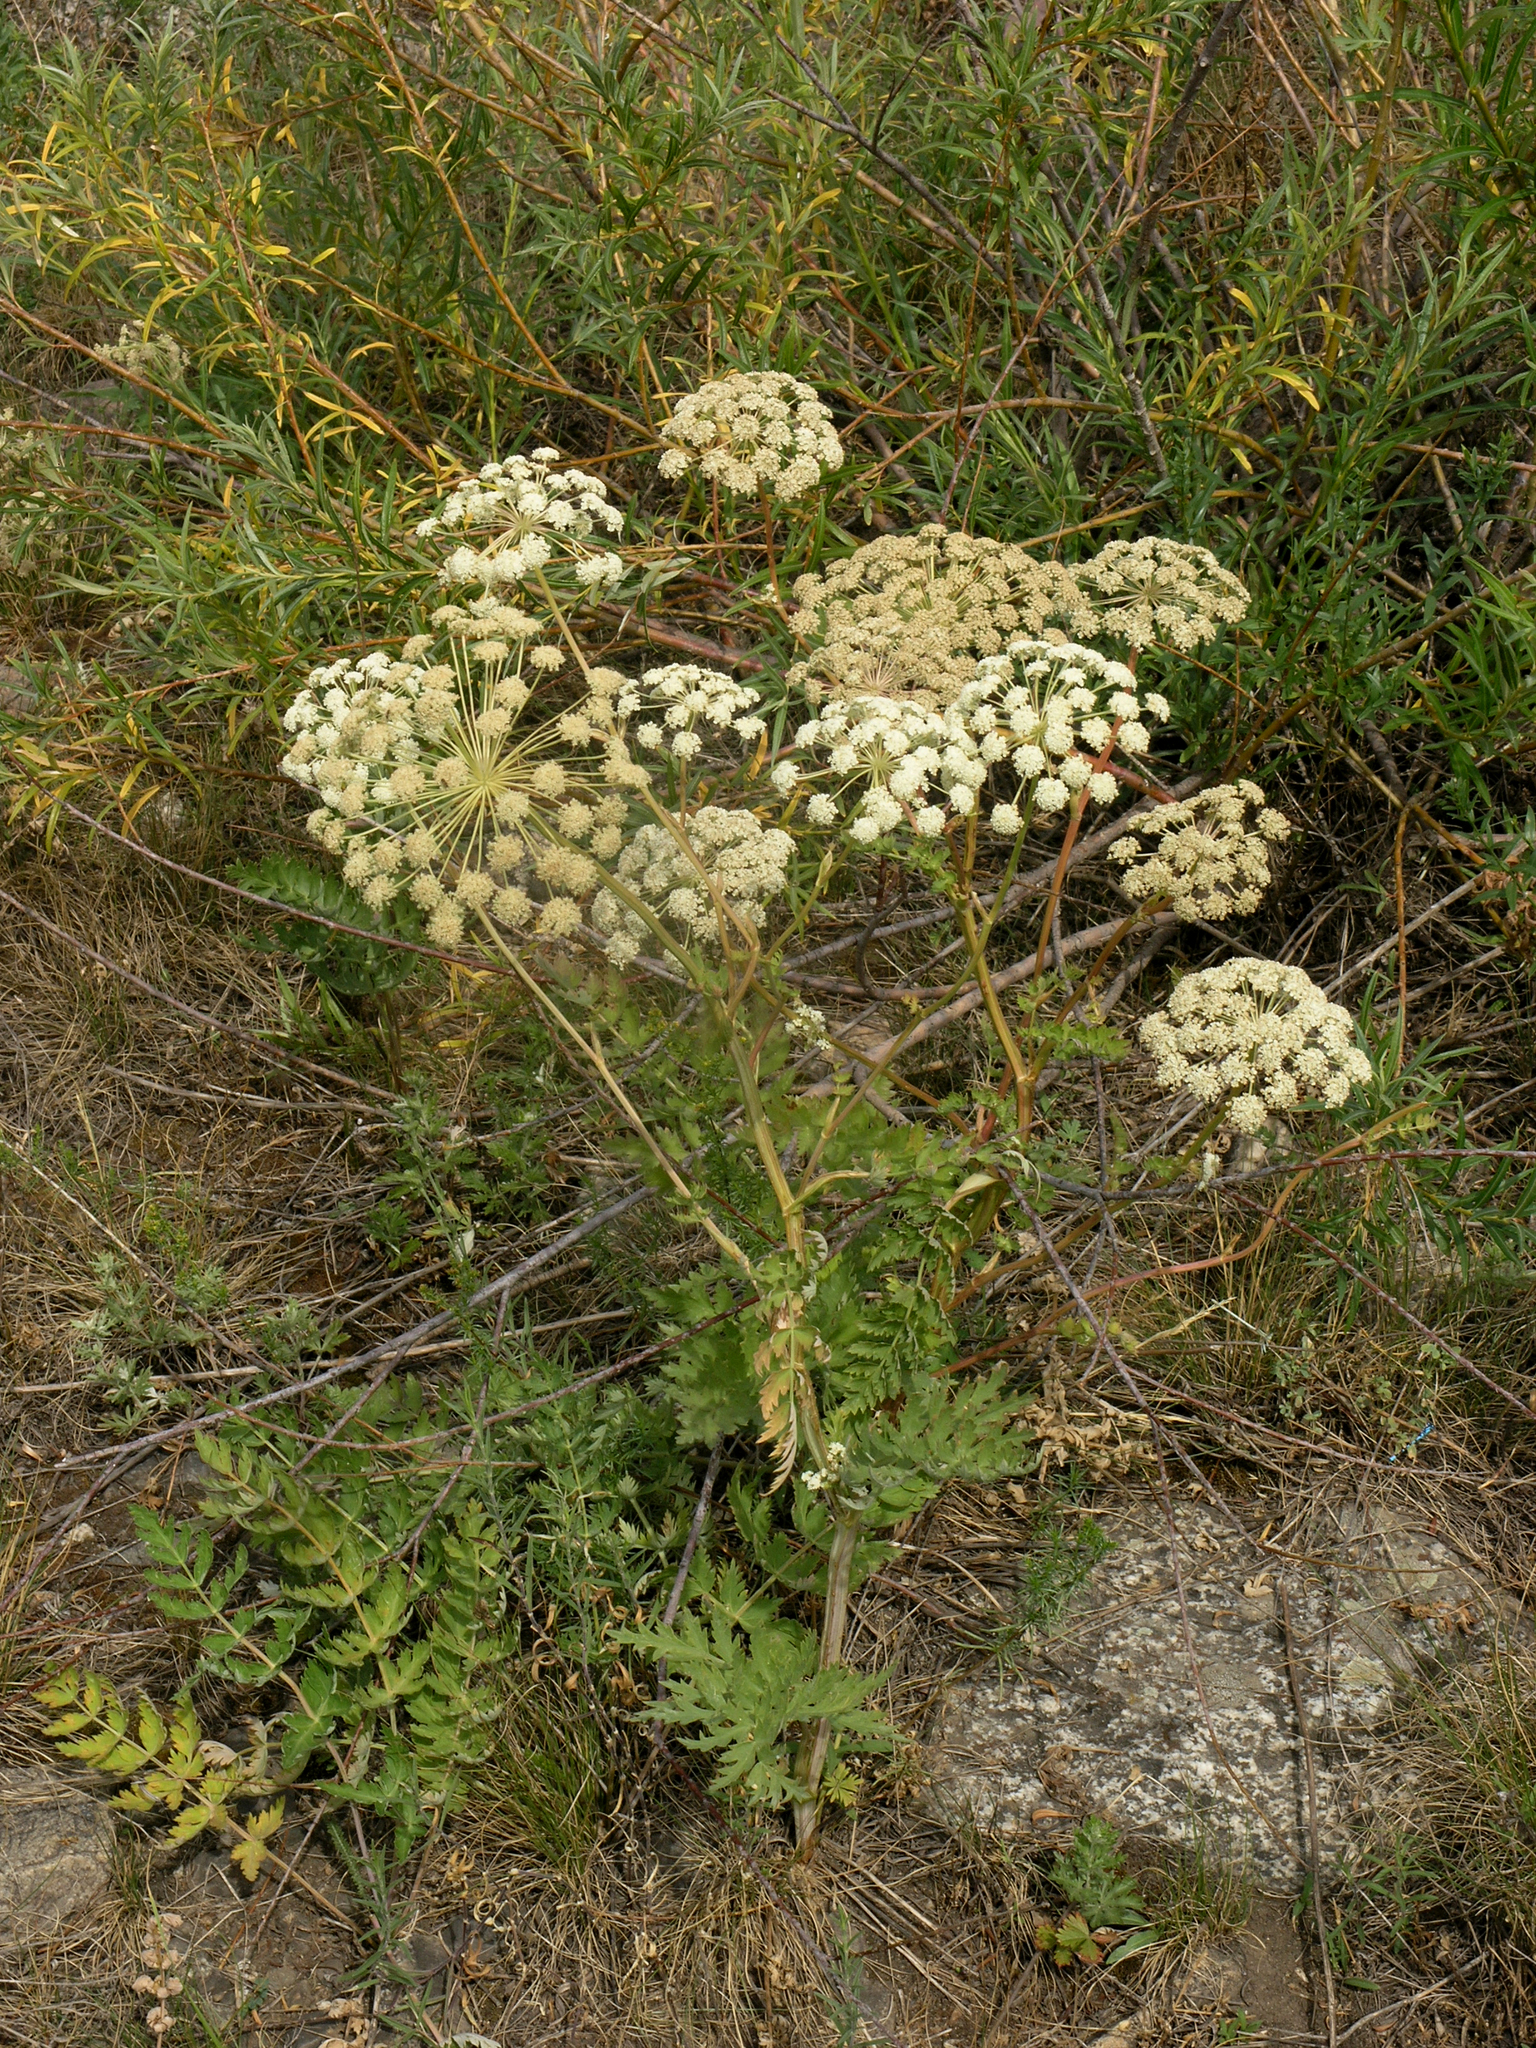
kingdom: Plantae
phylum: Tracheophyta
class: Magnoliopsida
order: Apiales
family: Apiaceae
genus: Seseli
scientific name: Seseli libanotis
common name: Mooncarrot
